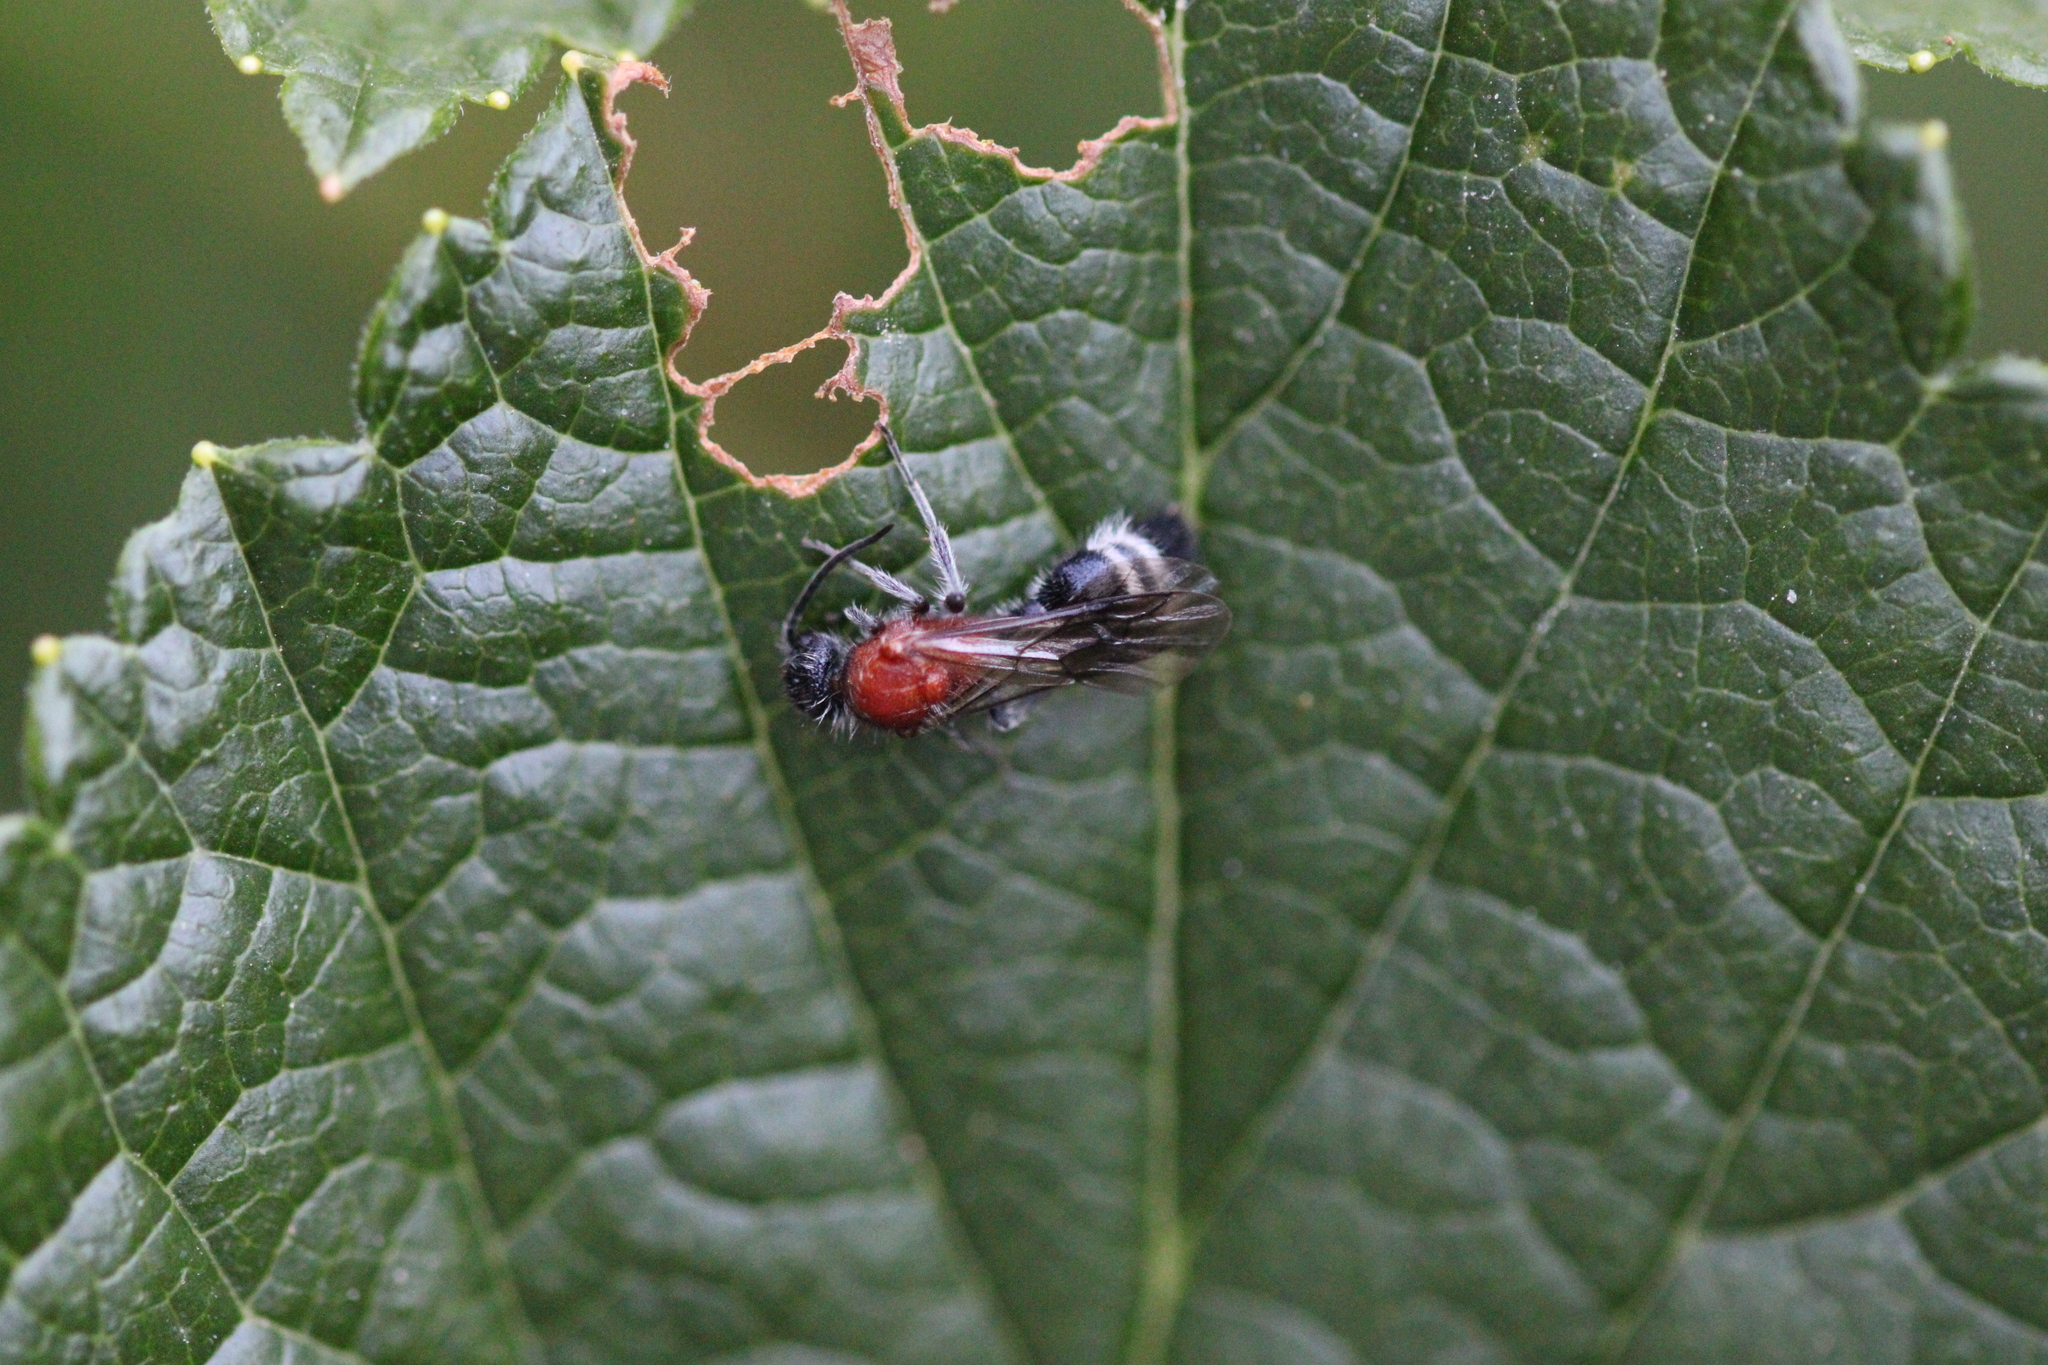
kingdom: Animalia
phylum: Arthropoda
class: Insecta
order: Hymenoptera
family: Mutillidae
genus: Cystomutilla
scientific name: Cystomutilla ruficeps
